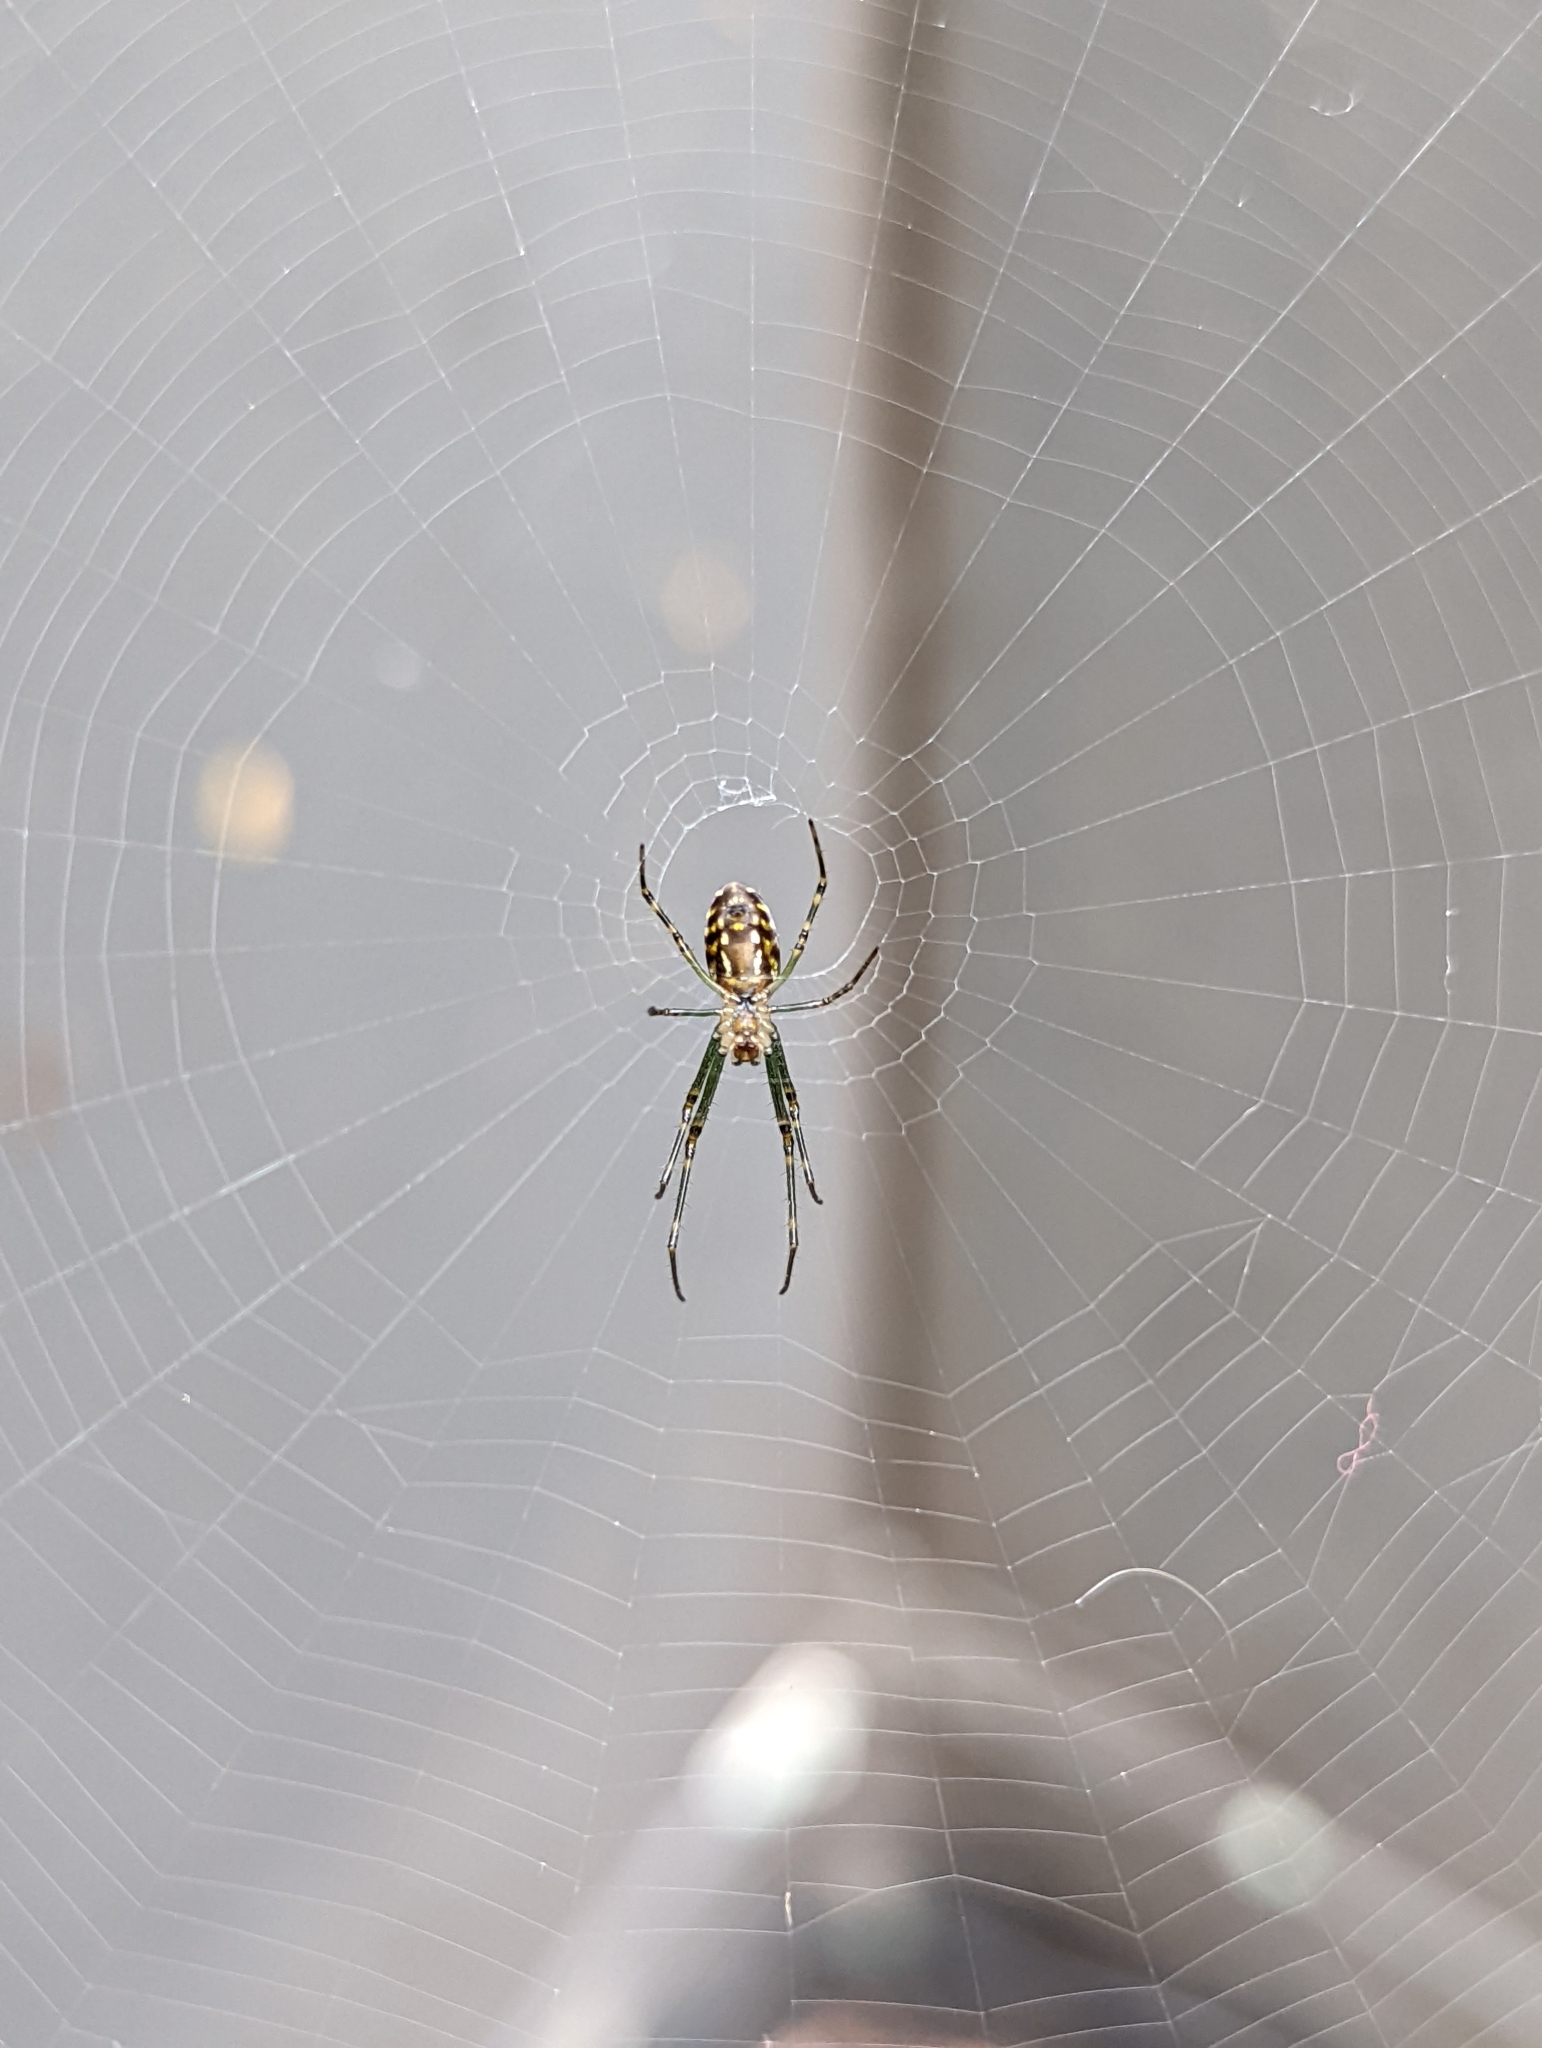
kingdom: Animalia
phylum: Arthropoda
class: Arachnida
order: Araneae
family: Araneidae
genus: Plebs
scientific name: Plebs eburnus
